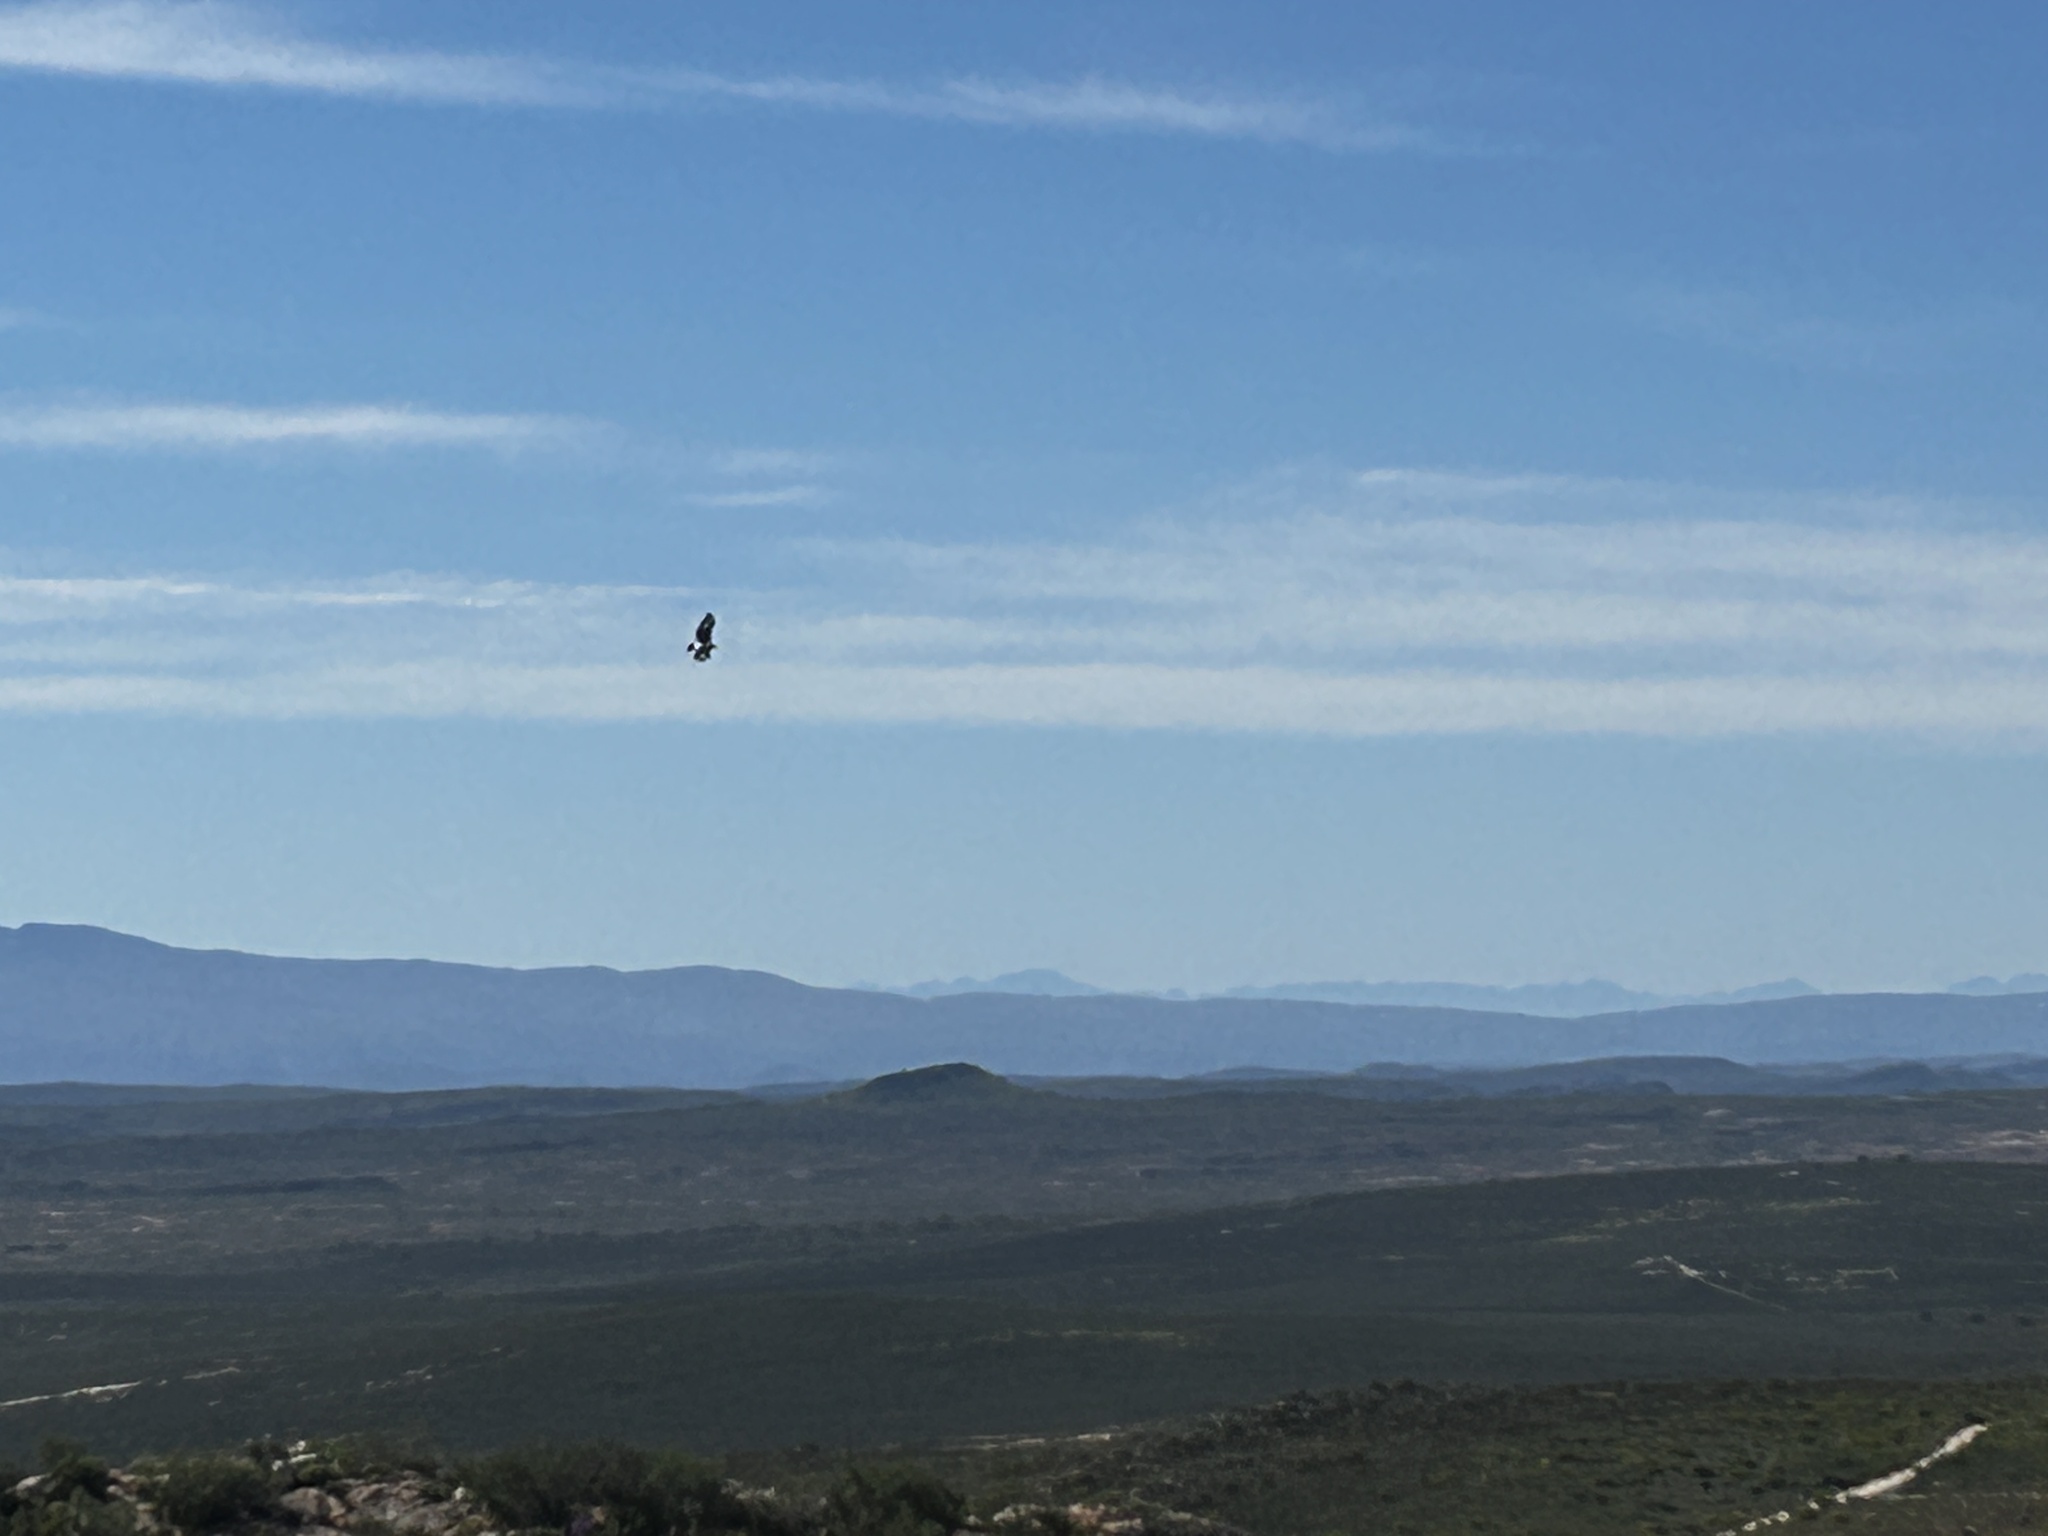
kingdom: Animalia
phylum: Chordata
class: Aves
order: Accipitriformes
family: Accipitridae
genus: Aquila
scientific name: Aquila verreauxii
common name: Verreaux's eagle
